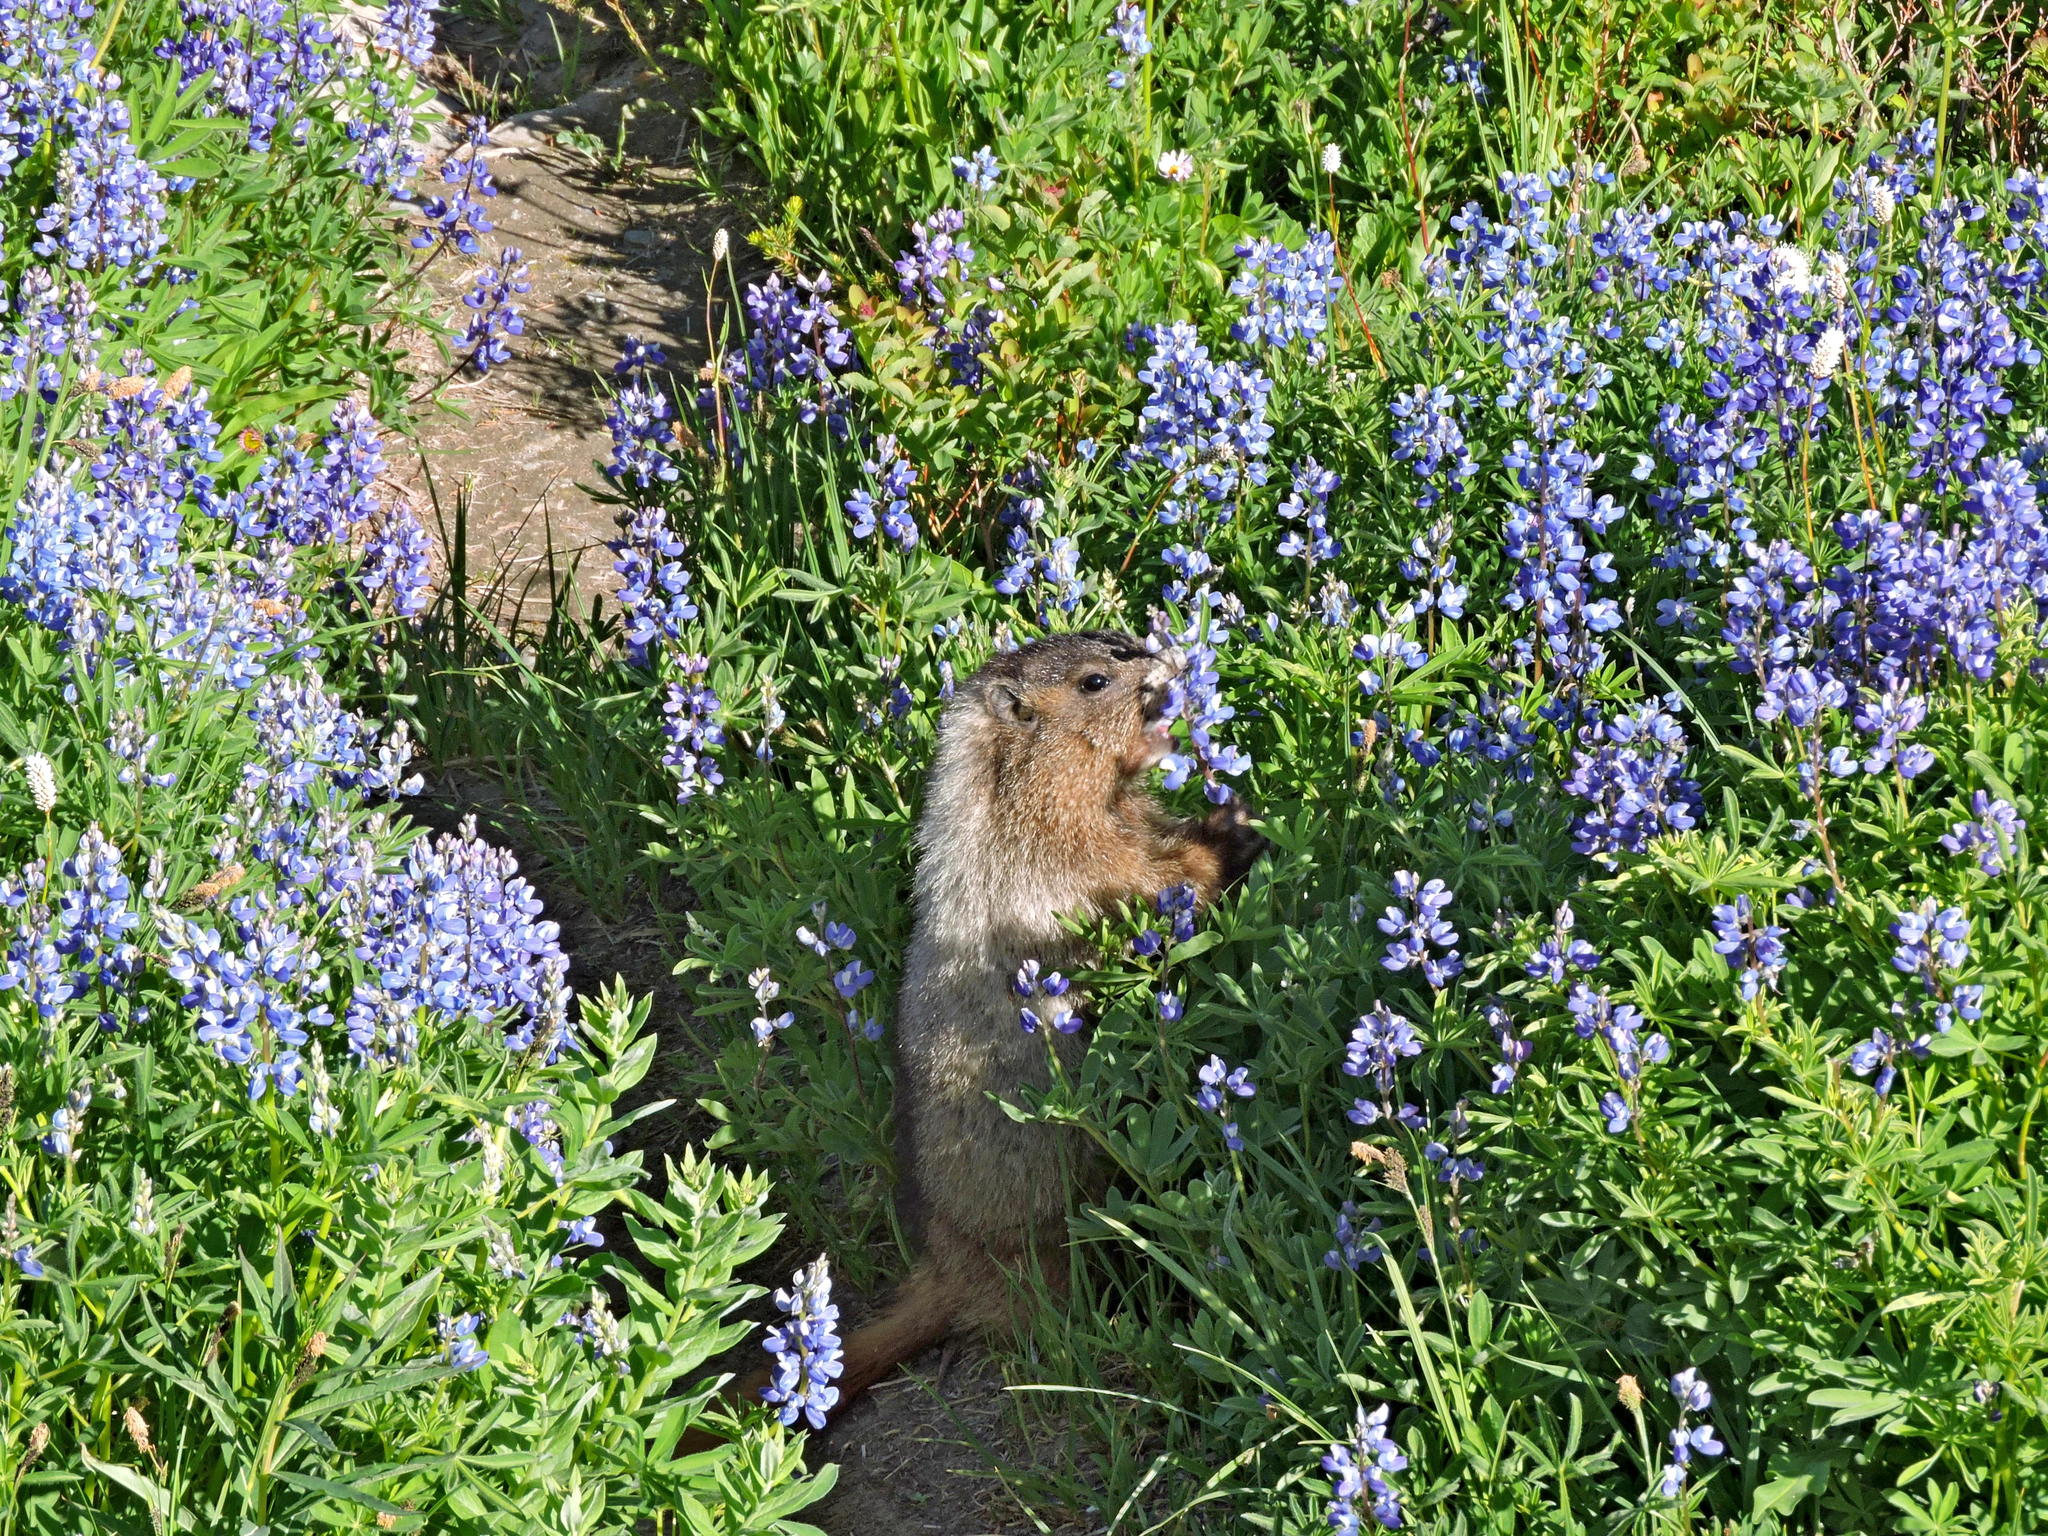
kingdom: Animalia
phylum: Chordata
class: Mammalia
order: Rodentia
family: Sciuridae
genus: Marmota
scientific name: Marmota caligata
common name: Hoary marmot
